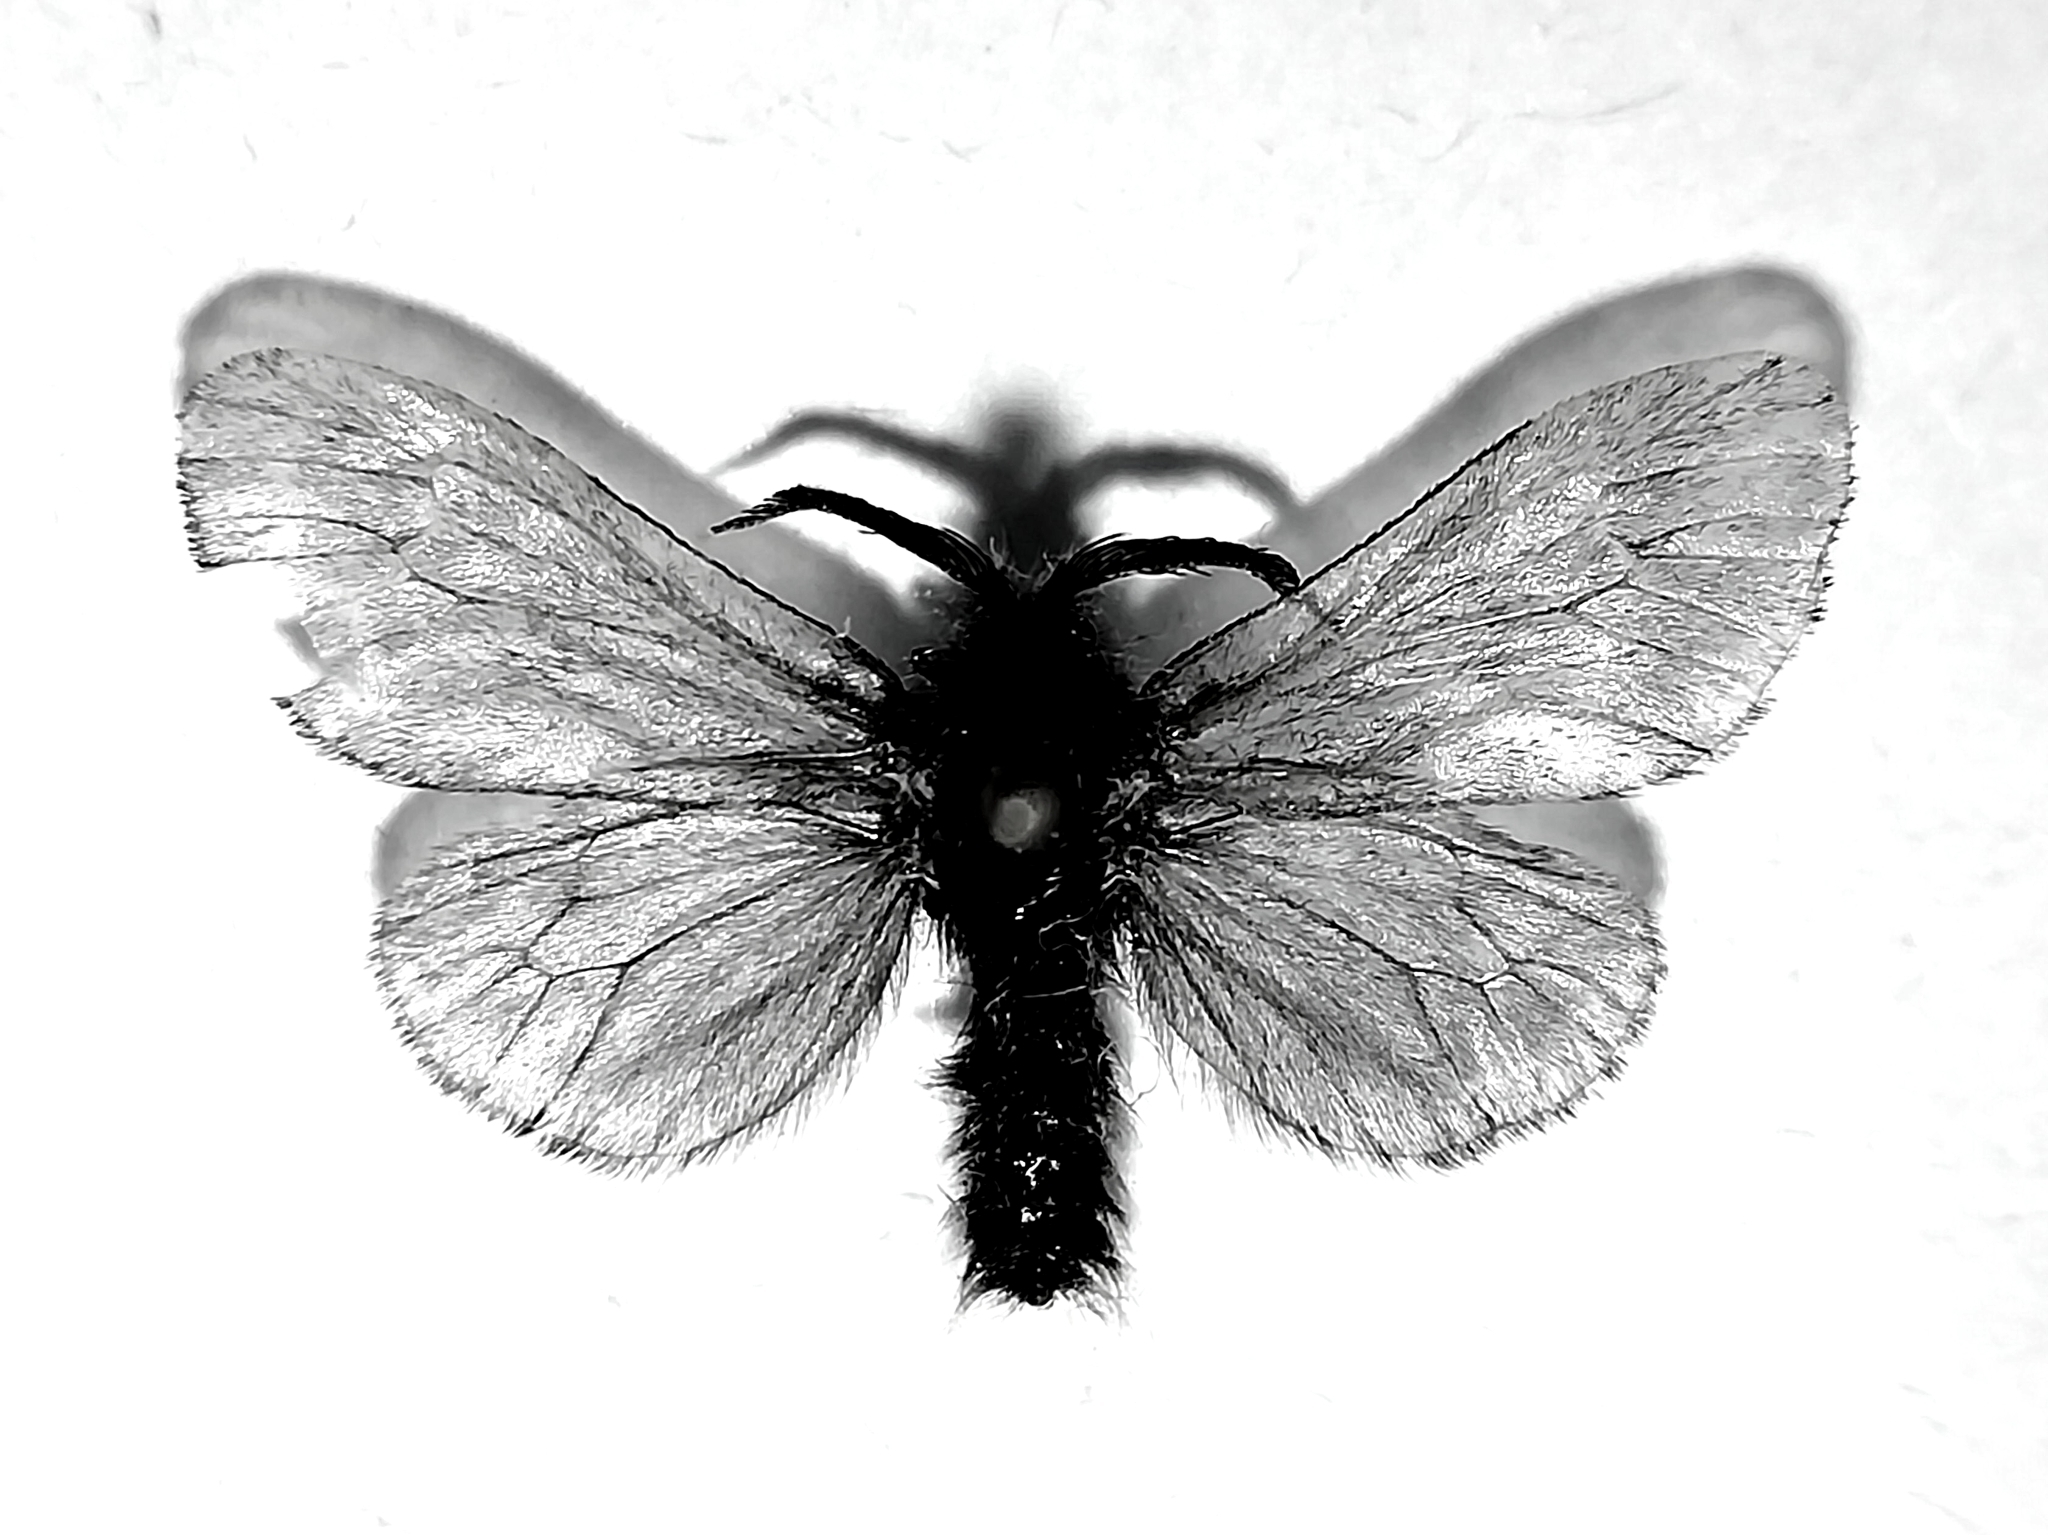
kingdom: Animalia
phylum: Arthropoda
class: Insecta
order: Lepidoptera
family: Psychidae
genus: Canephora
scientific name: Canephora hirsuta
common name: Hairy sweep
